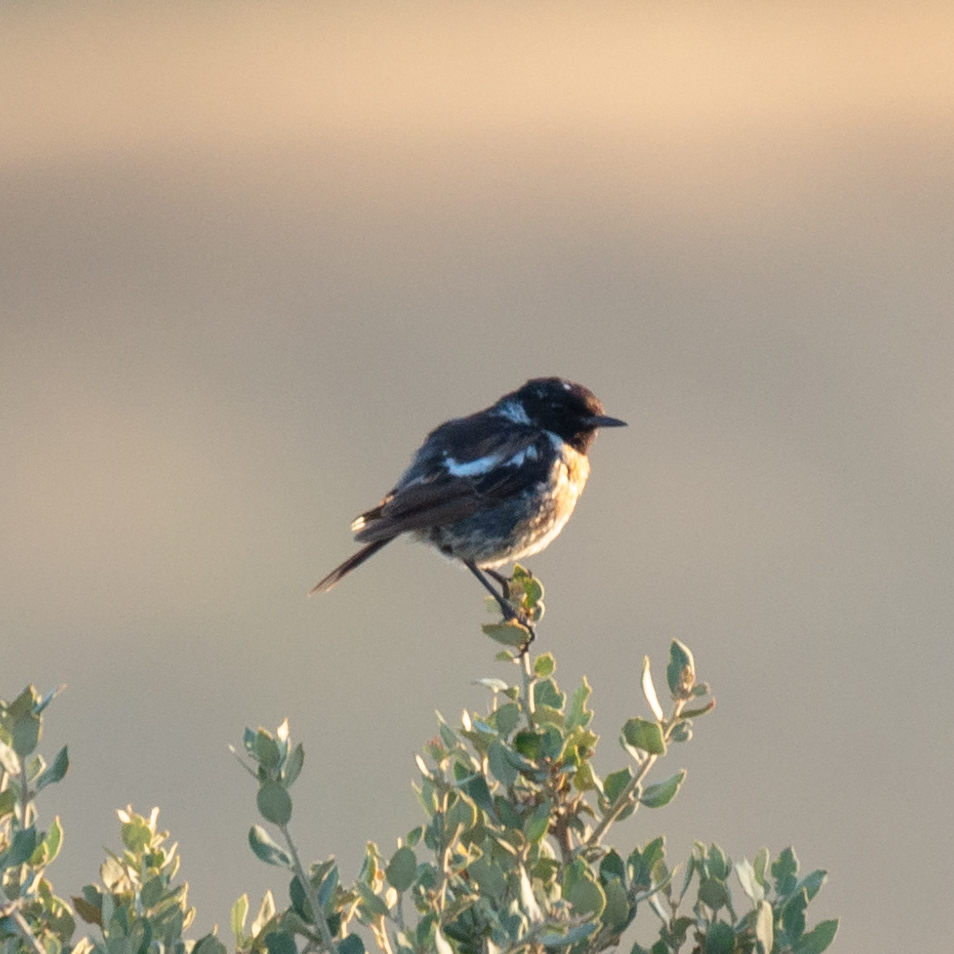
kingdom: Animalia
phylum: Chordata
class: Aves
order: Passeriformes
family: Muscicapidae
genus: Saxicola
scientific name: Saxicola rubicola
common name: European stonechat
